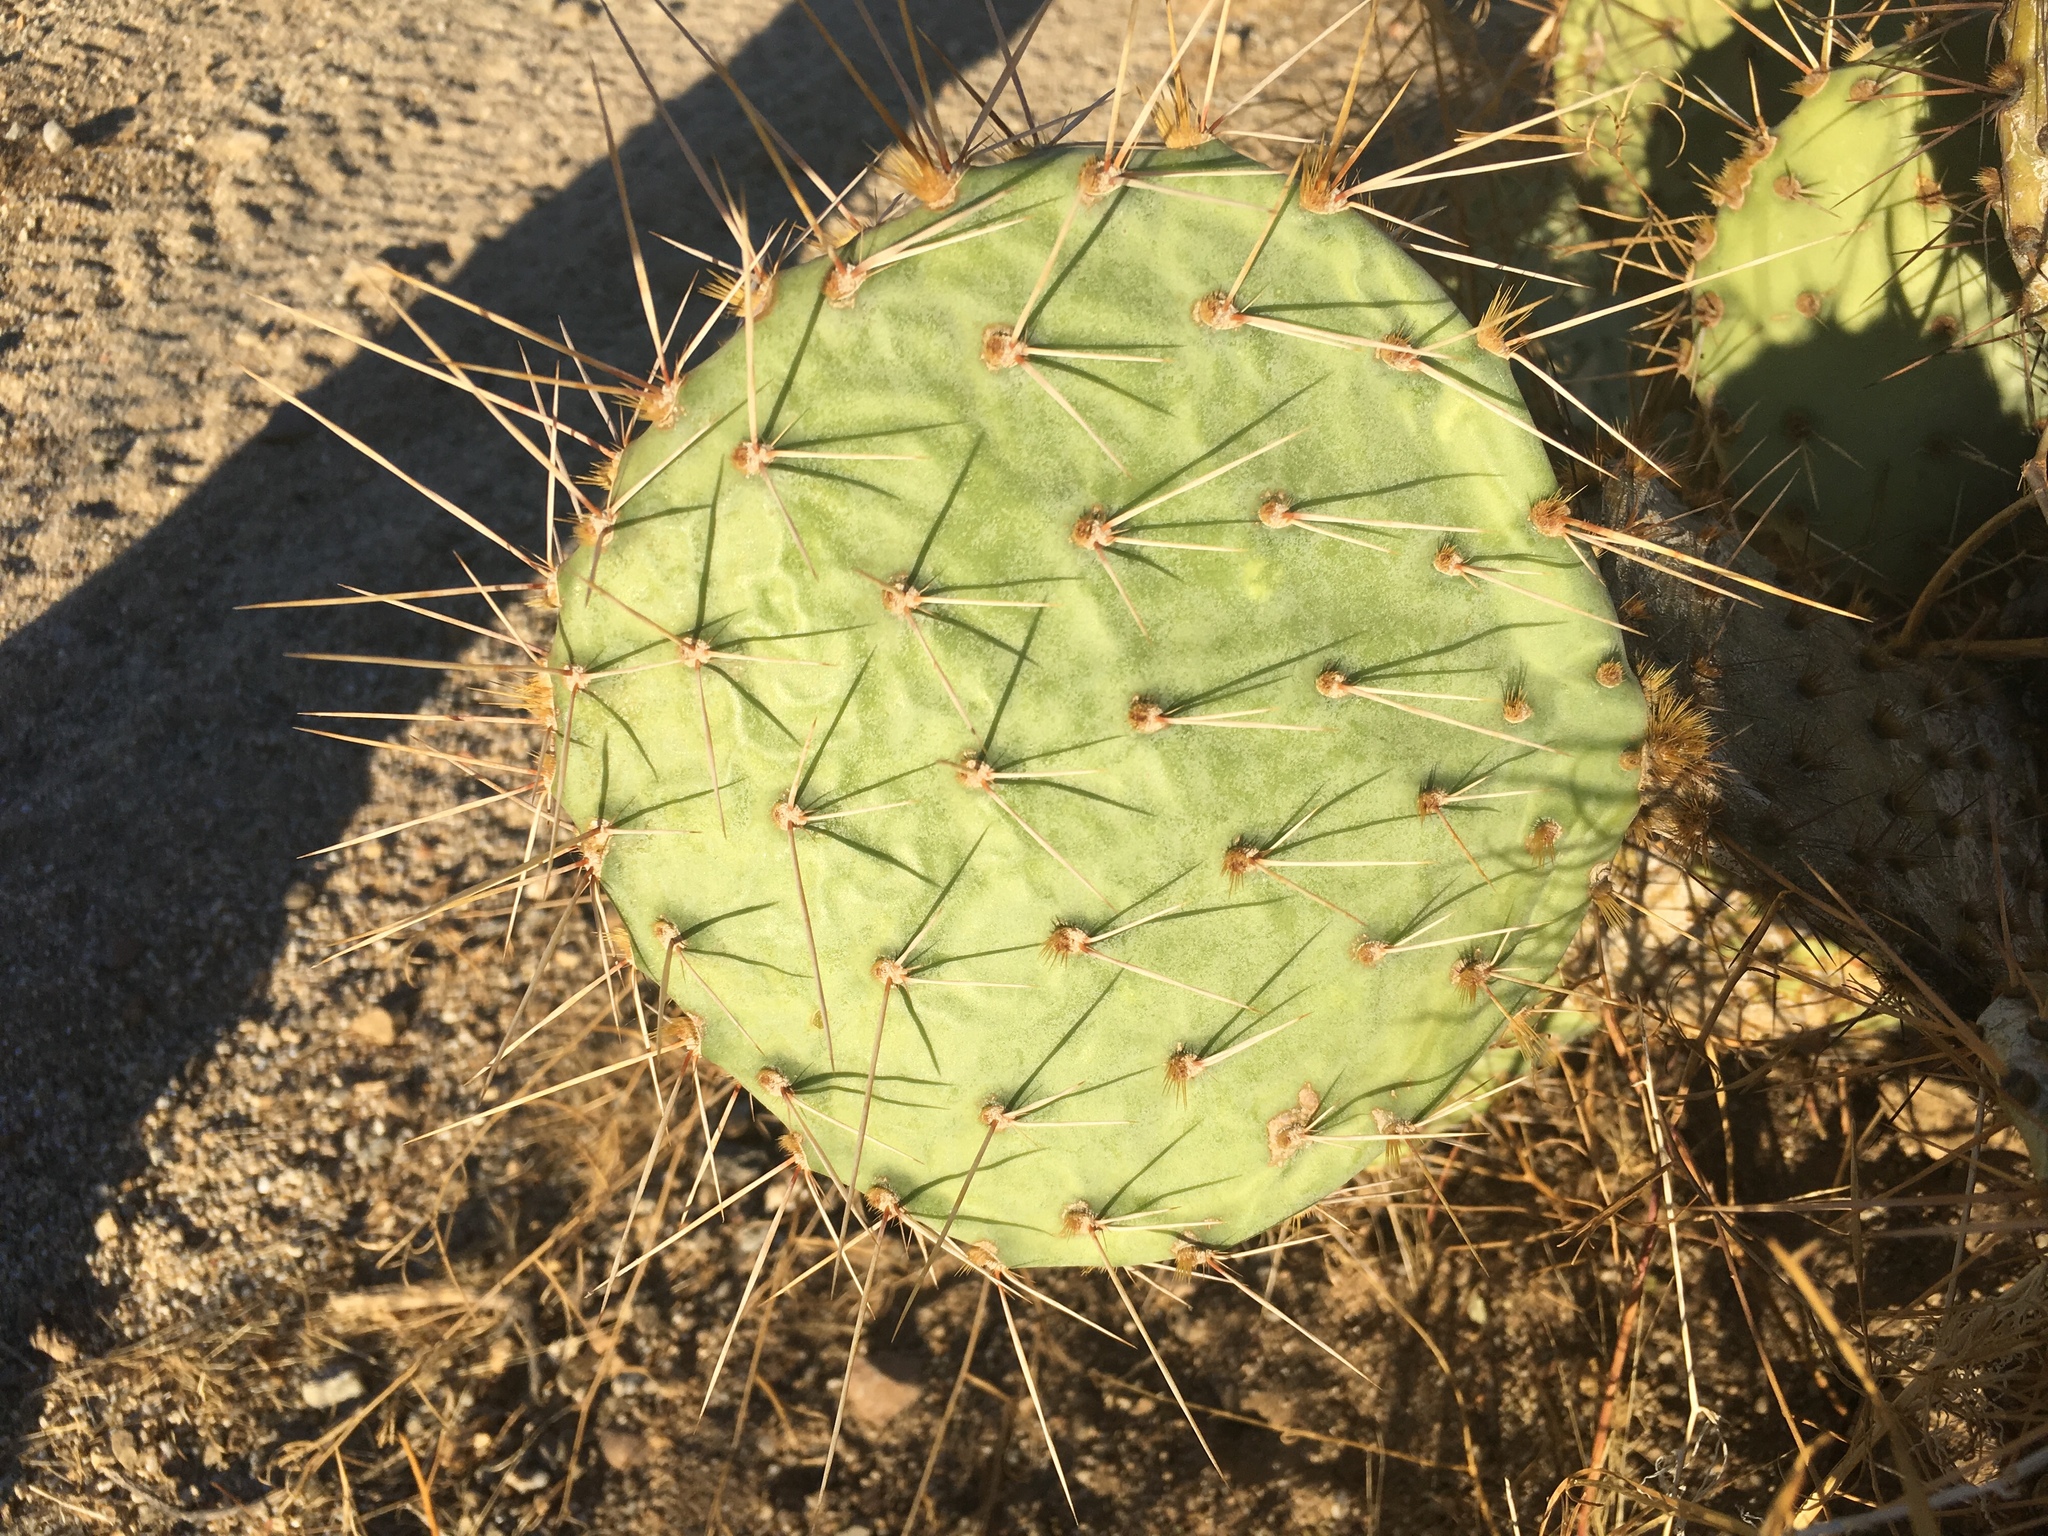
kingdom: Plantae
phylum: Tracheophyta
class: Magnoliopsida
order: Caryophyllales
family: Cactaceae
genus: Opuntia
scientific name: Opuntia engelmannii
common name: Cactus-apple
